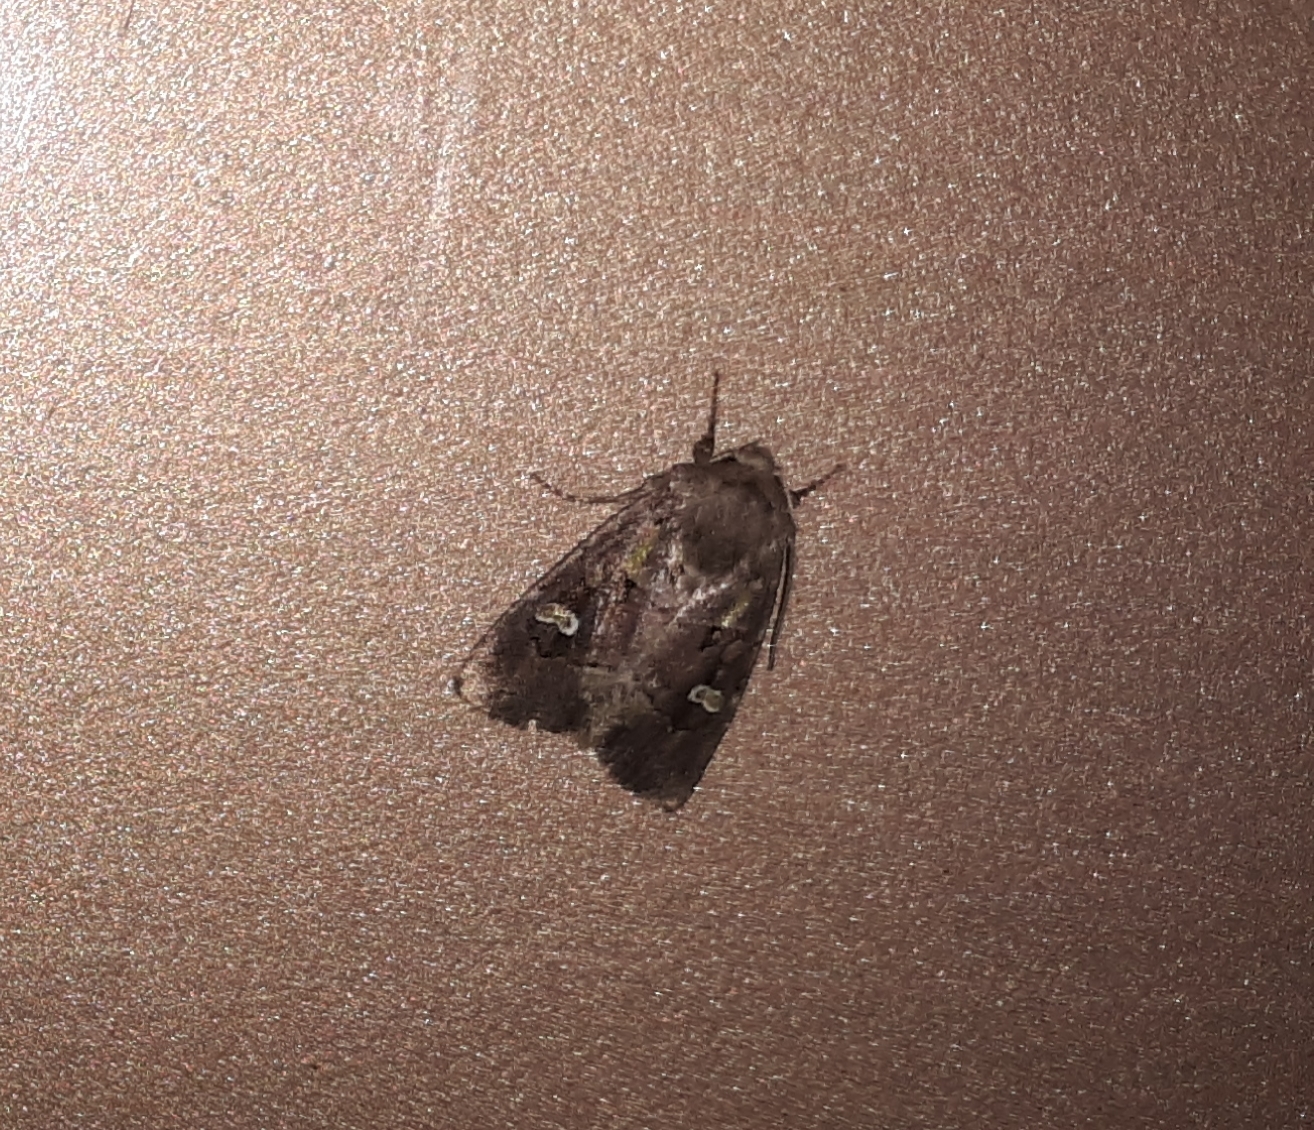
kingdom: Animalia
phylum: Arthropoda
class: Insecta
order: Lepidoptera
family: Noctuidae
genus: Lacinipolia
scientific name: Lacinipolia renigera
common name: Kidney-spotted minor
